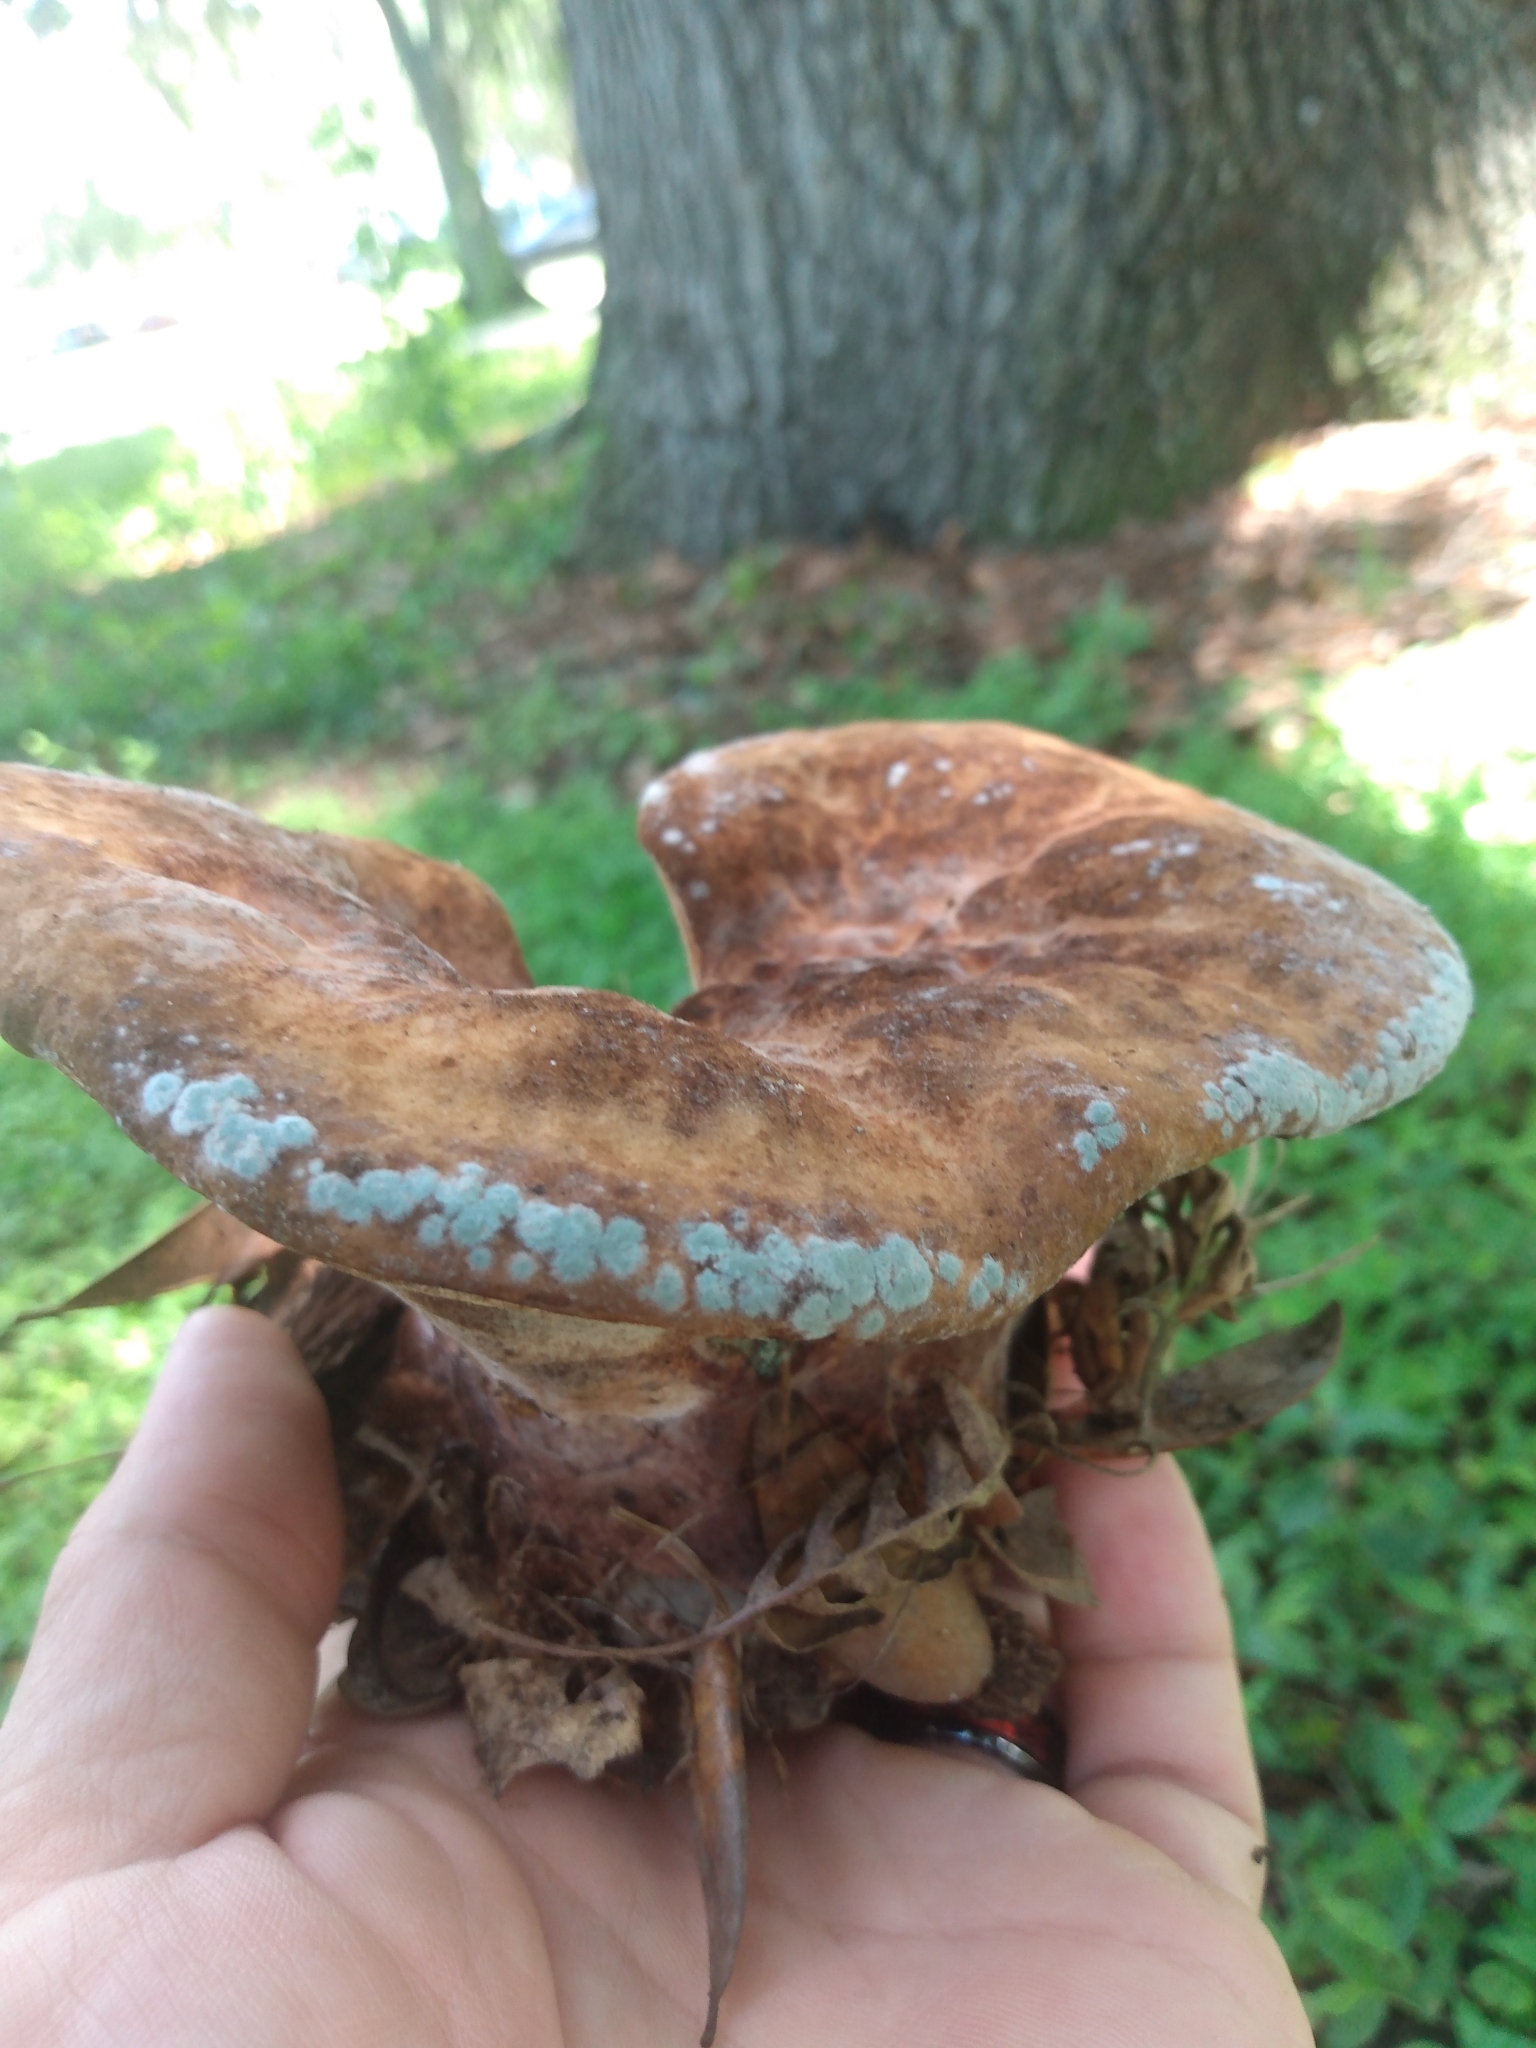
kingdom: Fungi
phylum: Basidiomycota
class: Agaricomycetes
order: Polyporales
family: Laetiporaceae
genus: Berkcurtia
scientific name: Berkcurtia persicina
